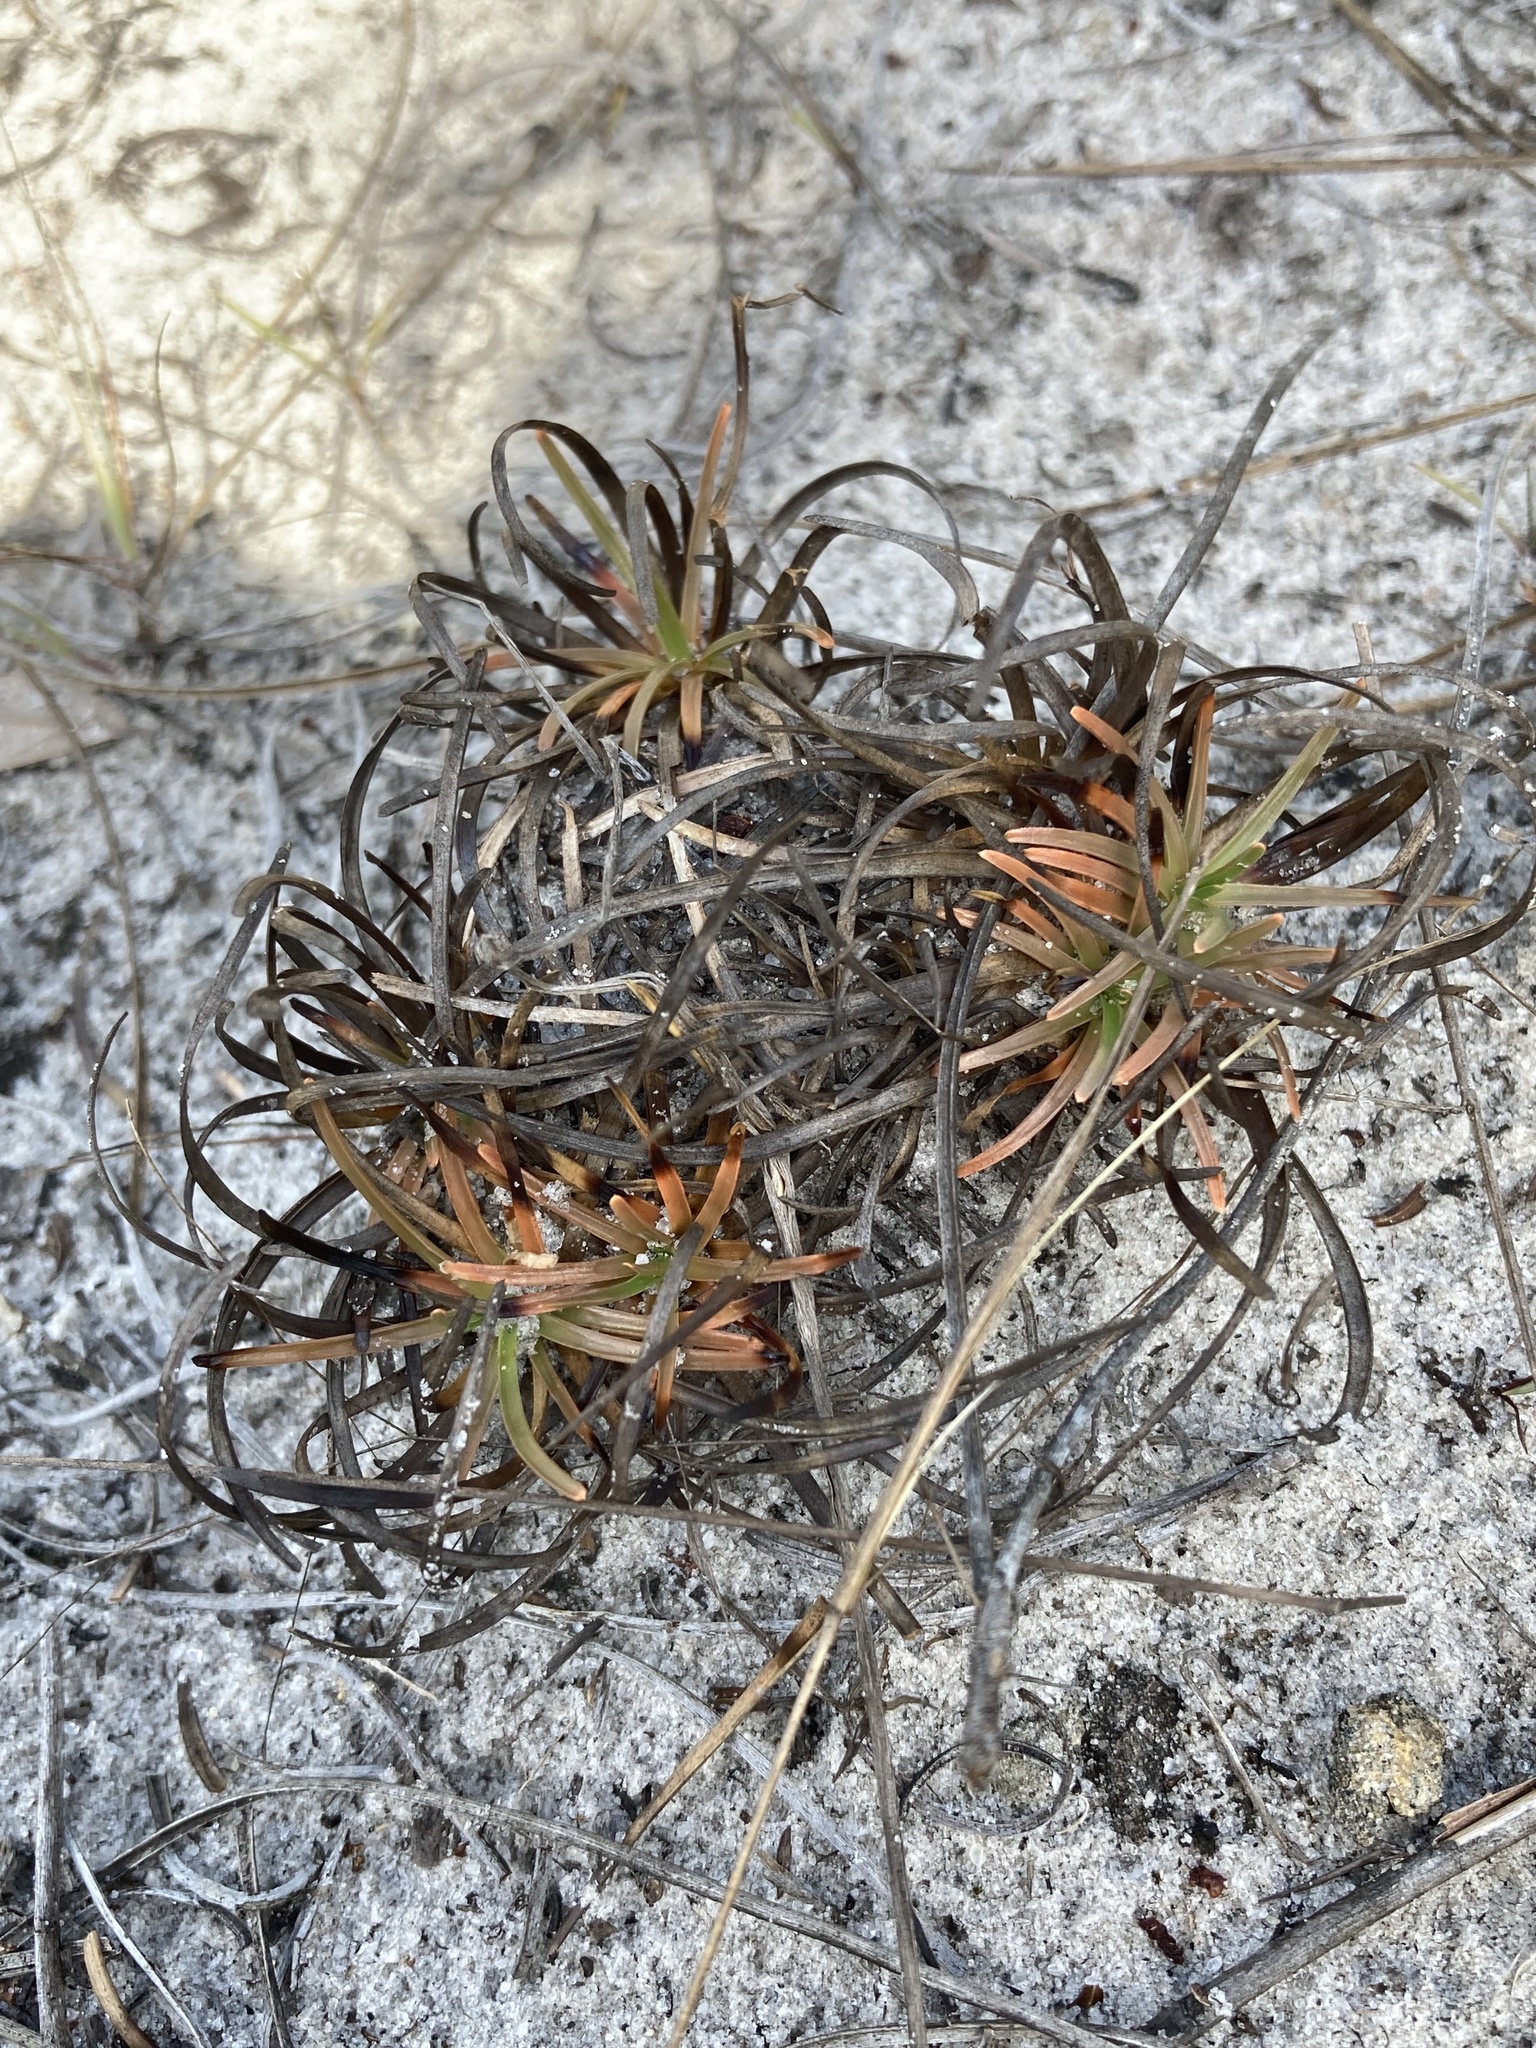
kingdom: Plantae
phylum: Tracheophyta
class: Liliopsida
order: Poales
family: Cyperaceae
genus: Fimbristylis
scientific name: Fimbristylis cymosa
